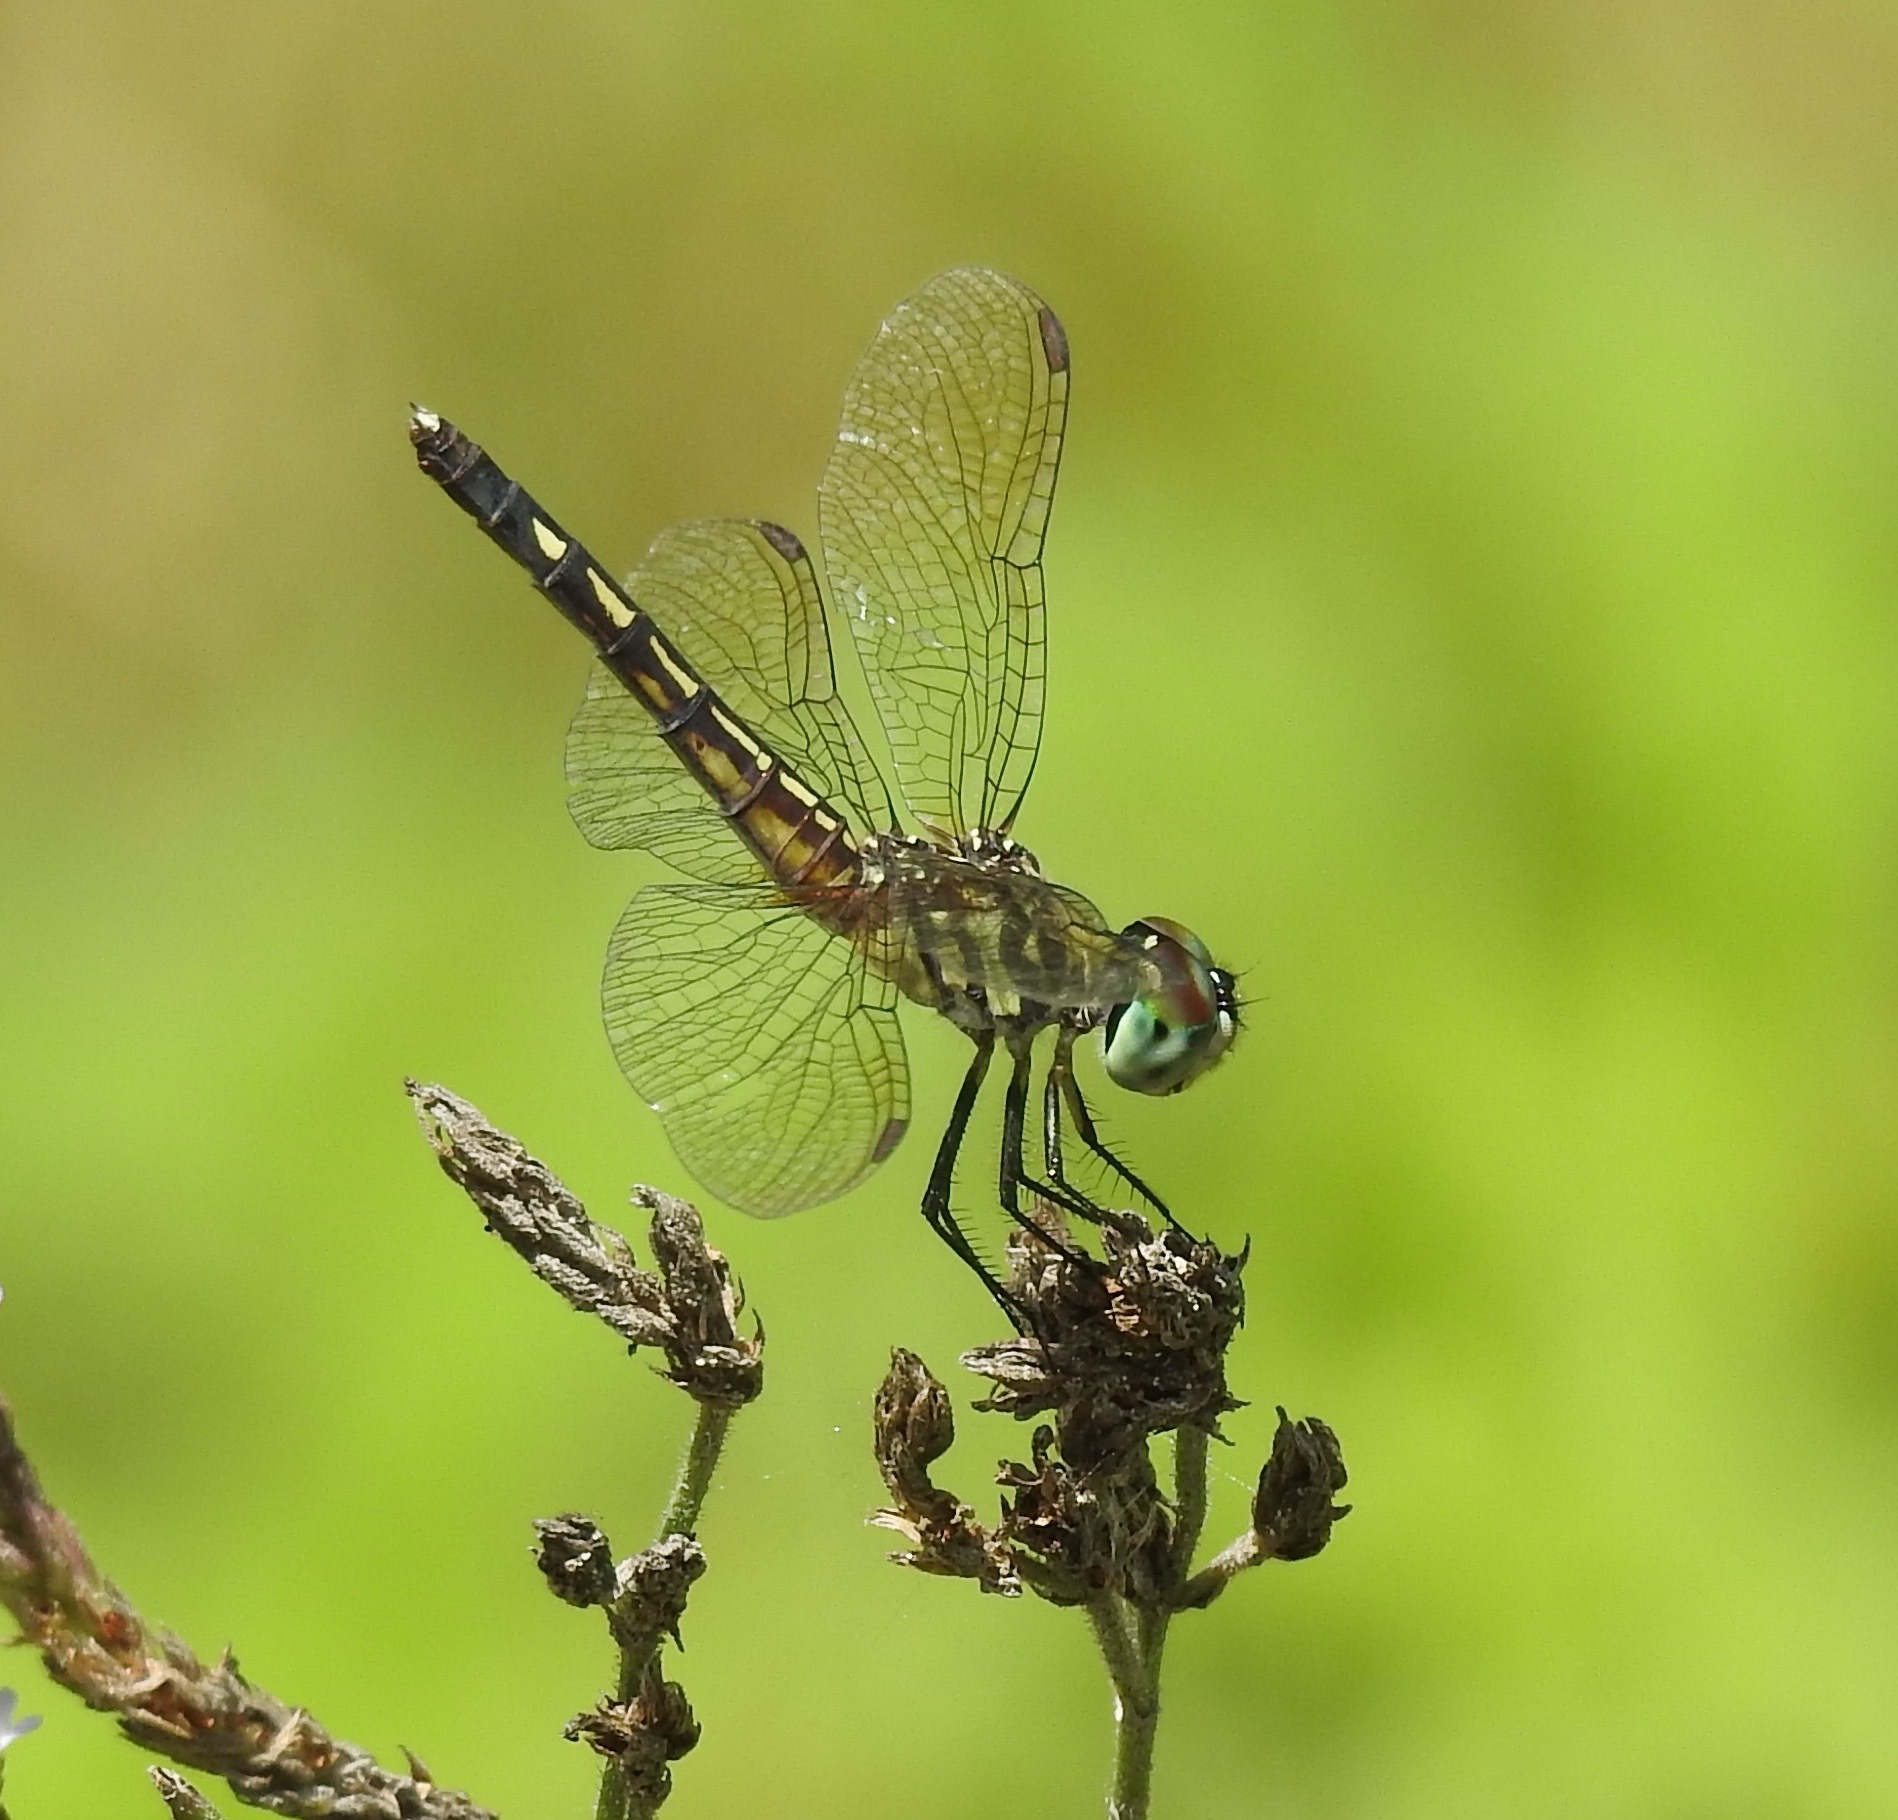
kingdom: Animalia
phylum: Arthropoda
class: Insecta
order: Odonata
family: Libellulidae
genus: Pachydiplax
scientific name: Pachydiplax longipennis
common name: Blue dasher
